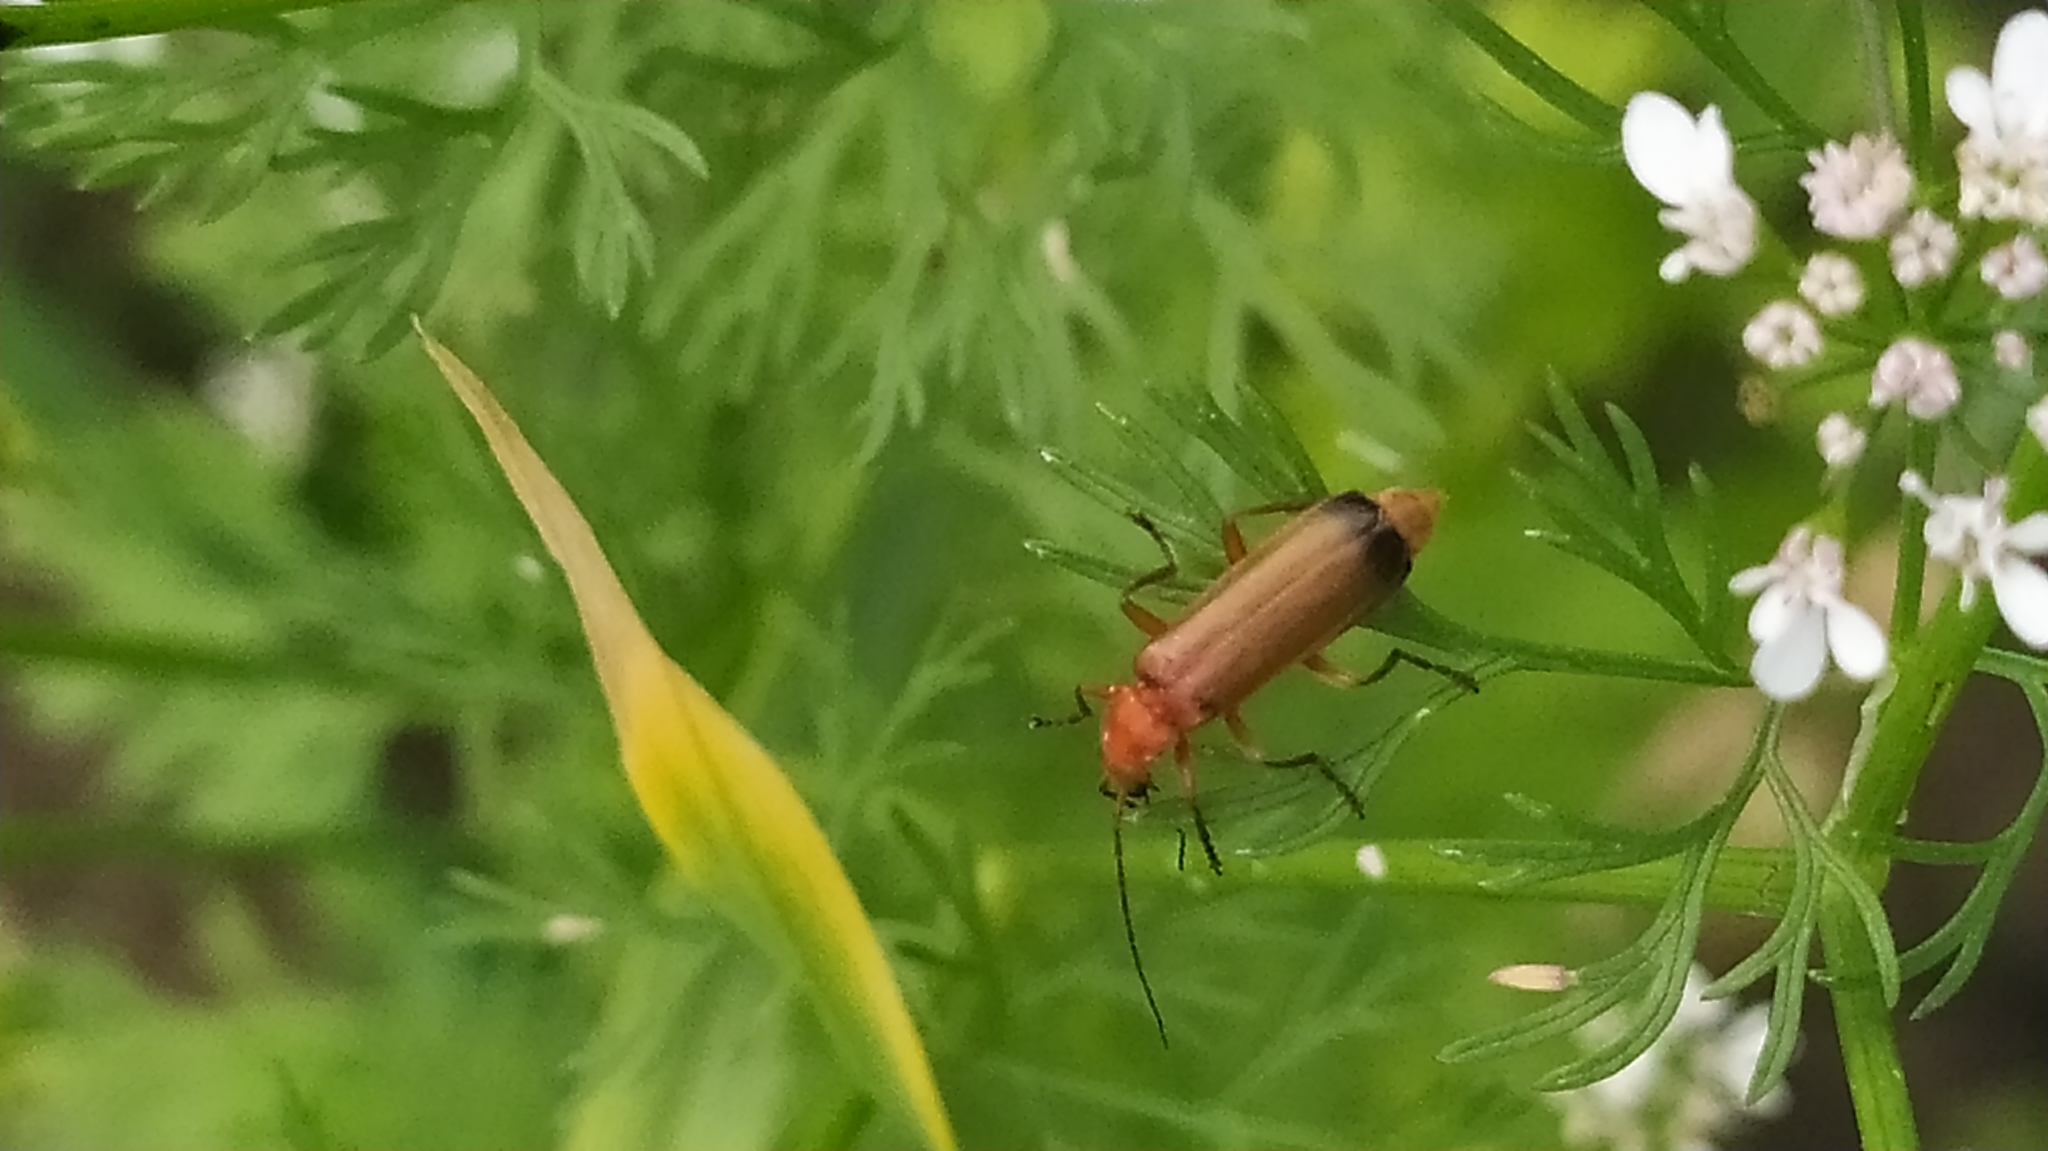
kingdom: Animalia
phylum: Arthropoda
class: Insecta
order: Coleoptera
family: Cantharidae
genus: Rhagonycha
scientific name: Rhagonycha fulva
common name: Common red soldier beetle
